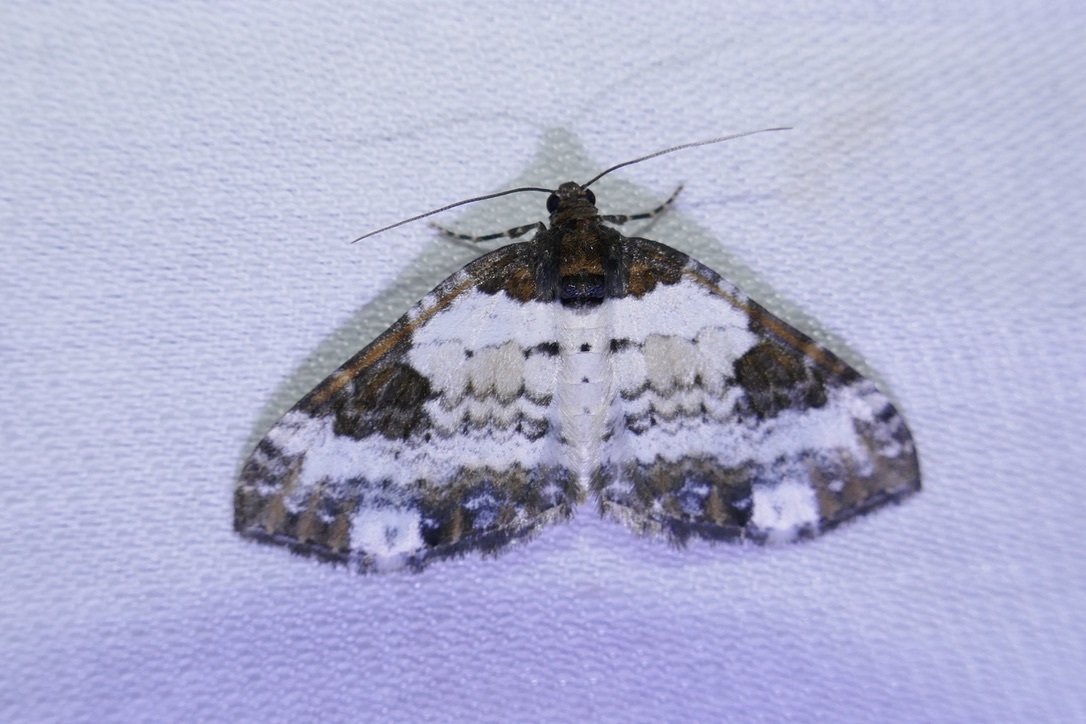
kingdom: Animalia
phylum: Arthropoda
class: Insecta
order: Lepidoptera
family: Geometridae
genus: Melanthia
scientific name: Melanthia procellata
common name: Pretty chalk carpet
